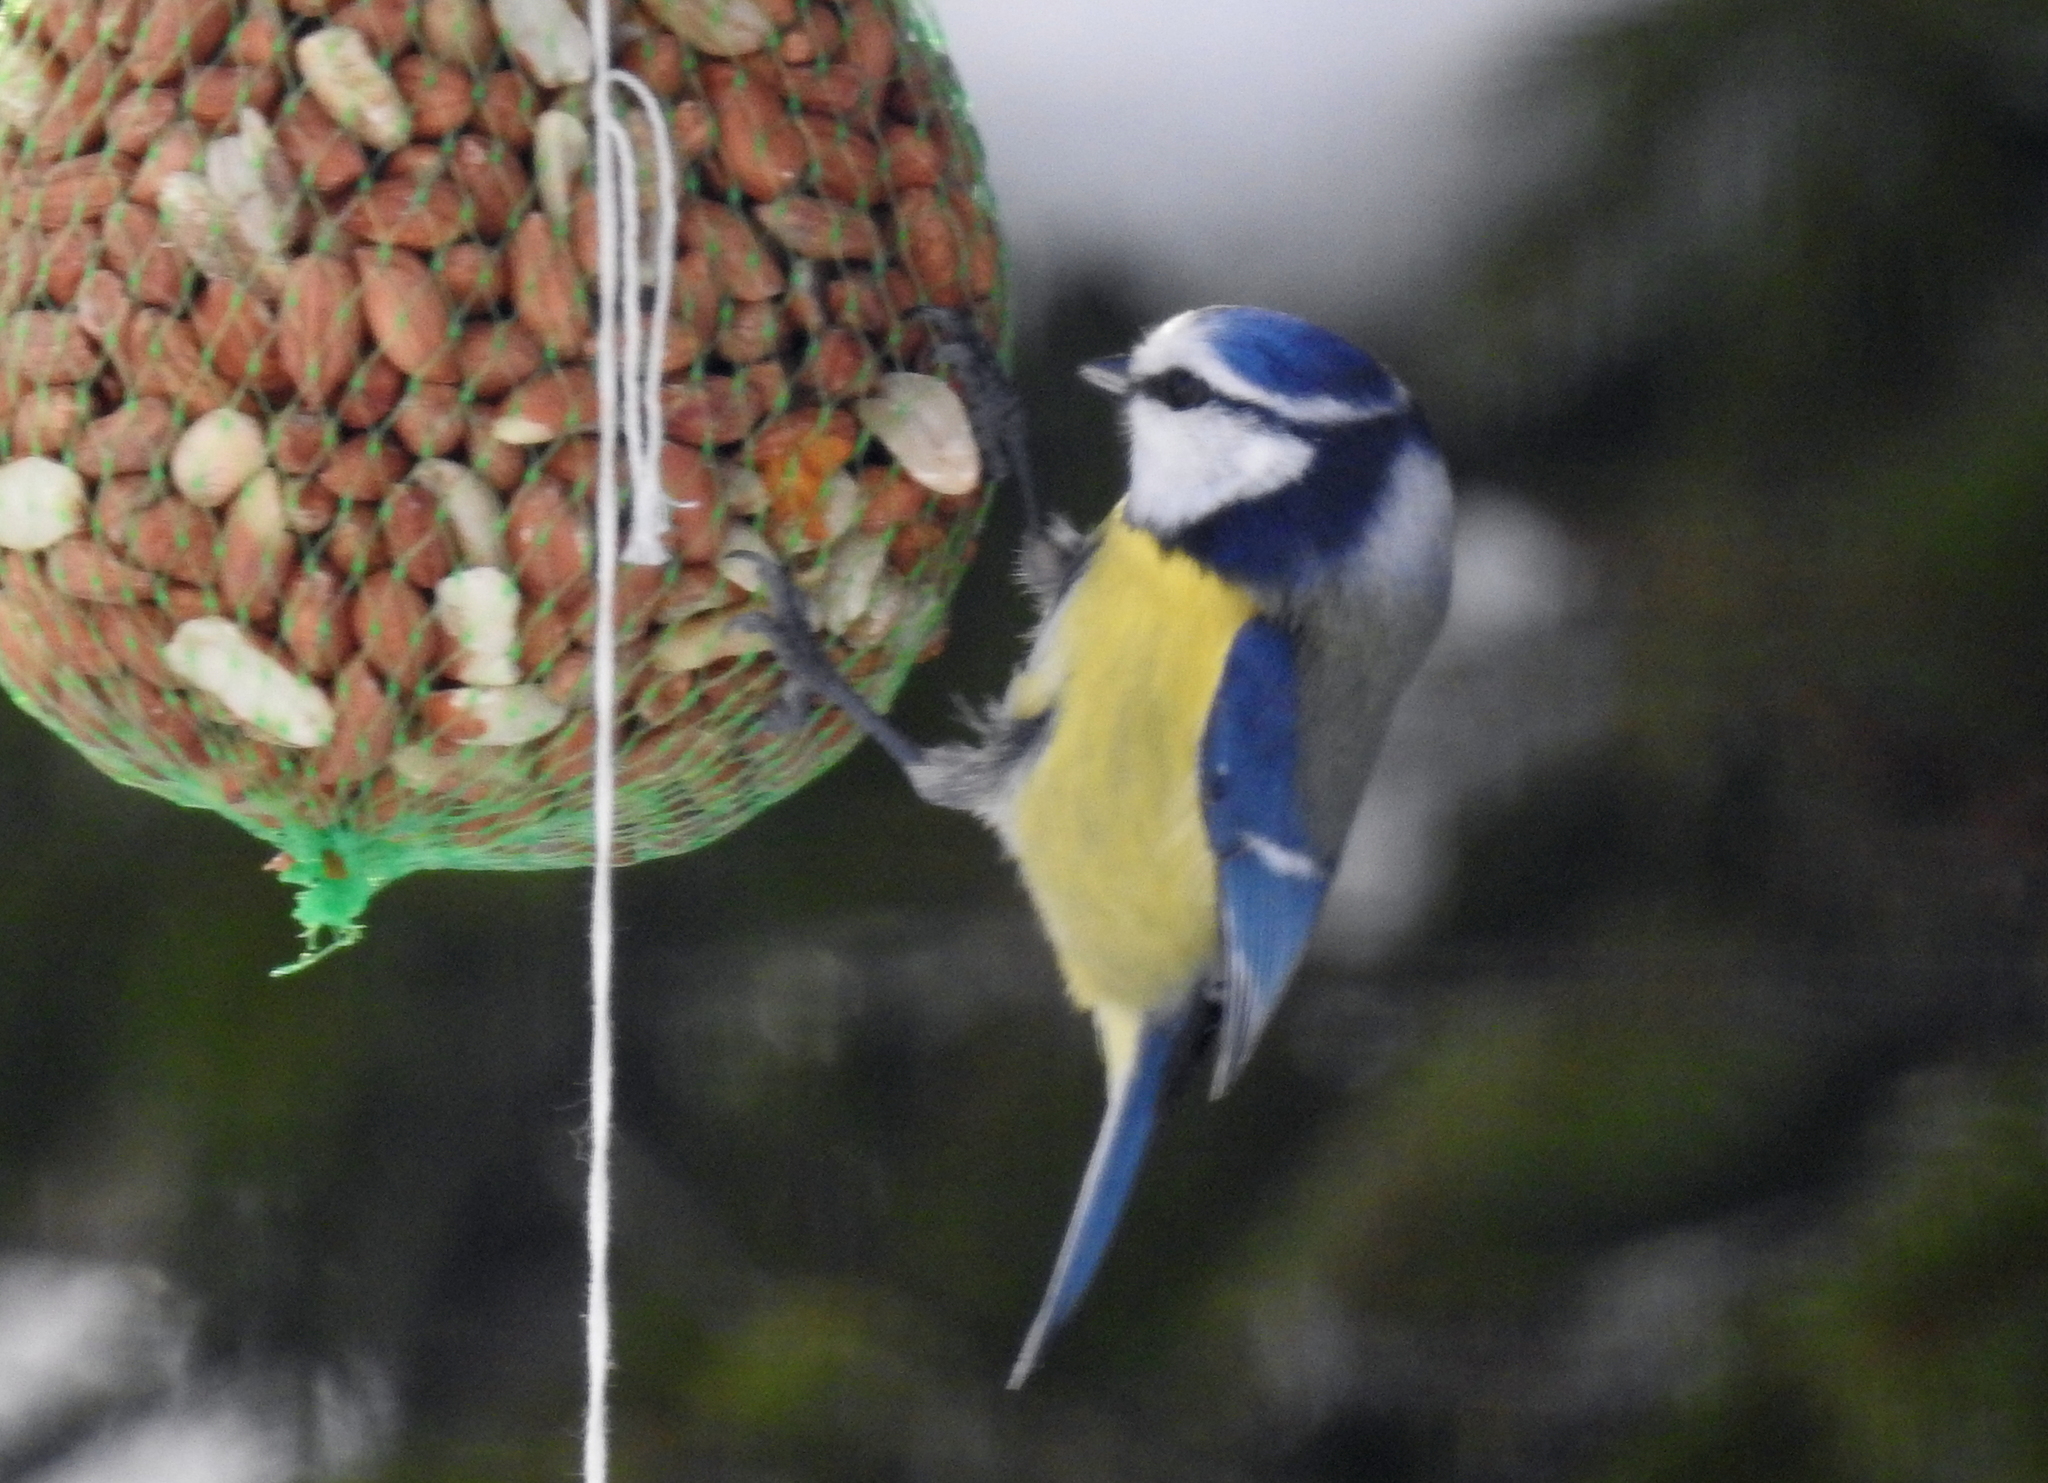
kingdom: Animalia
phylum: Chordata
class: Aves
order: Passeriformes
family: Paridae
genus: Cyanistes
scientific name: Cyanistes caeruleus
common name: Eurasian blue tit
